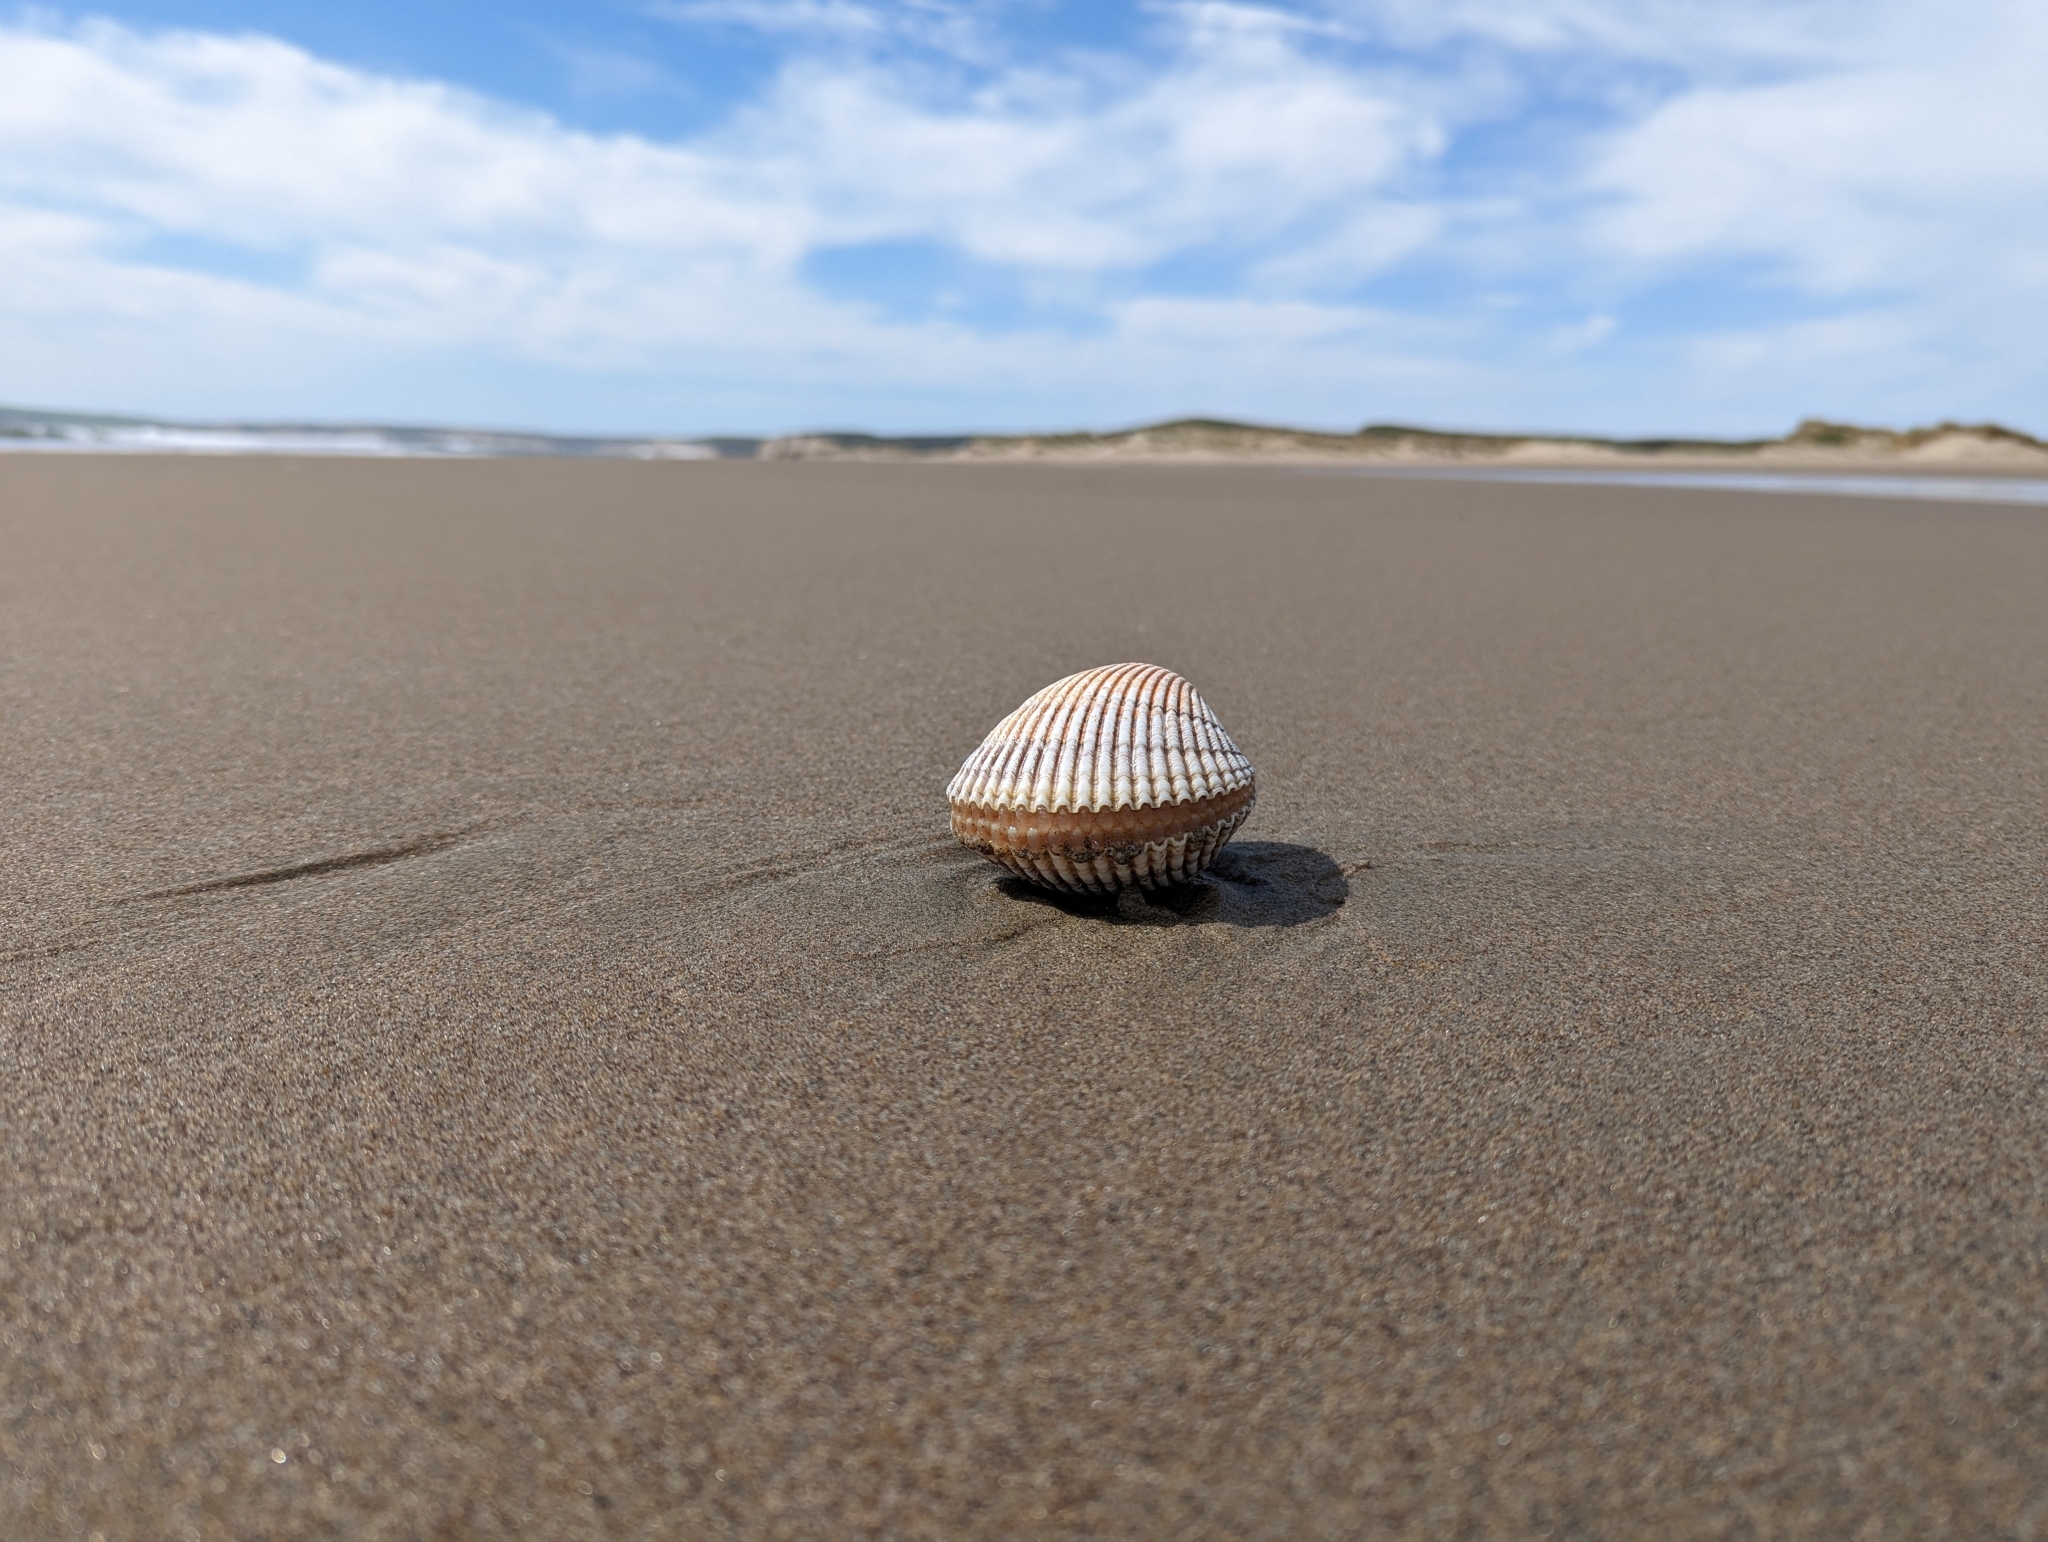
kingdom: Animalia
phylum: Mollusca
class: Bivalvia
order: Cardiida
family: Cardiidae
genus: Clinocardium
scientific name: Clinocardium nuttallii
